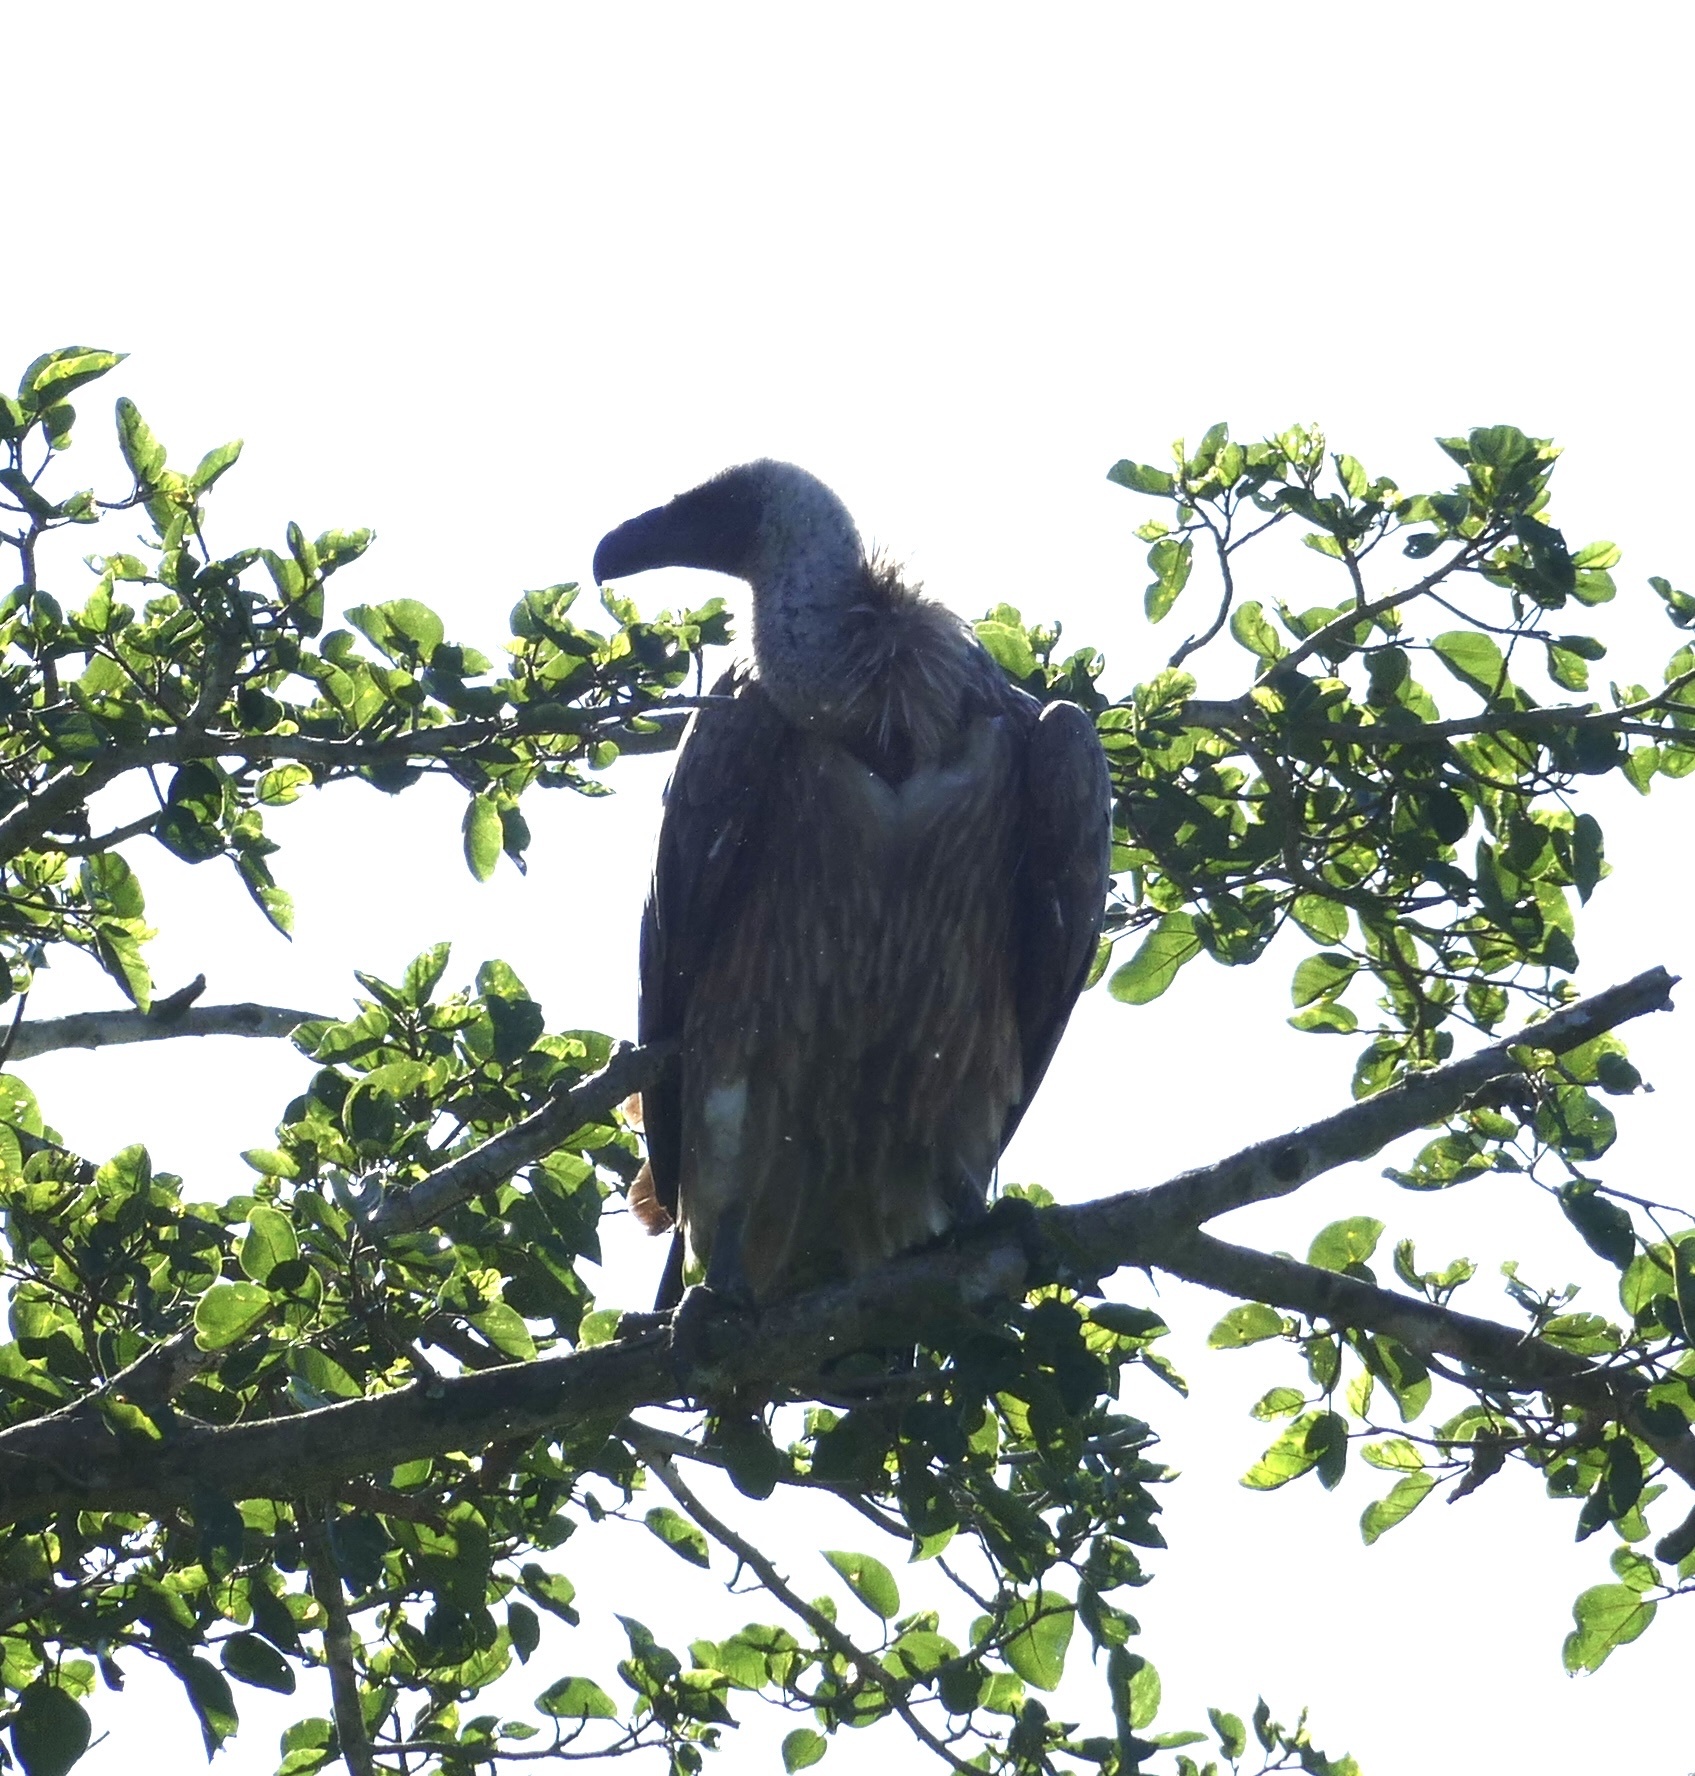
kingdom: Animalia
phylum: Chordata
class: Aves
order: Accipitriformes
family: Accipitridae
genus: Gyps
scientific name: Gyps africanus
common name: White-backed vulture
